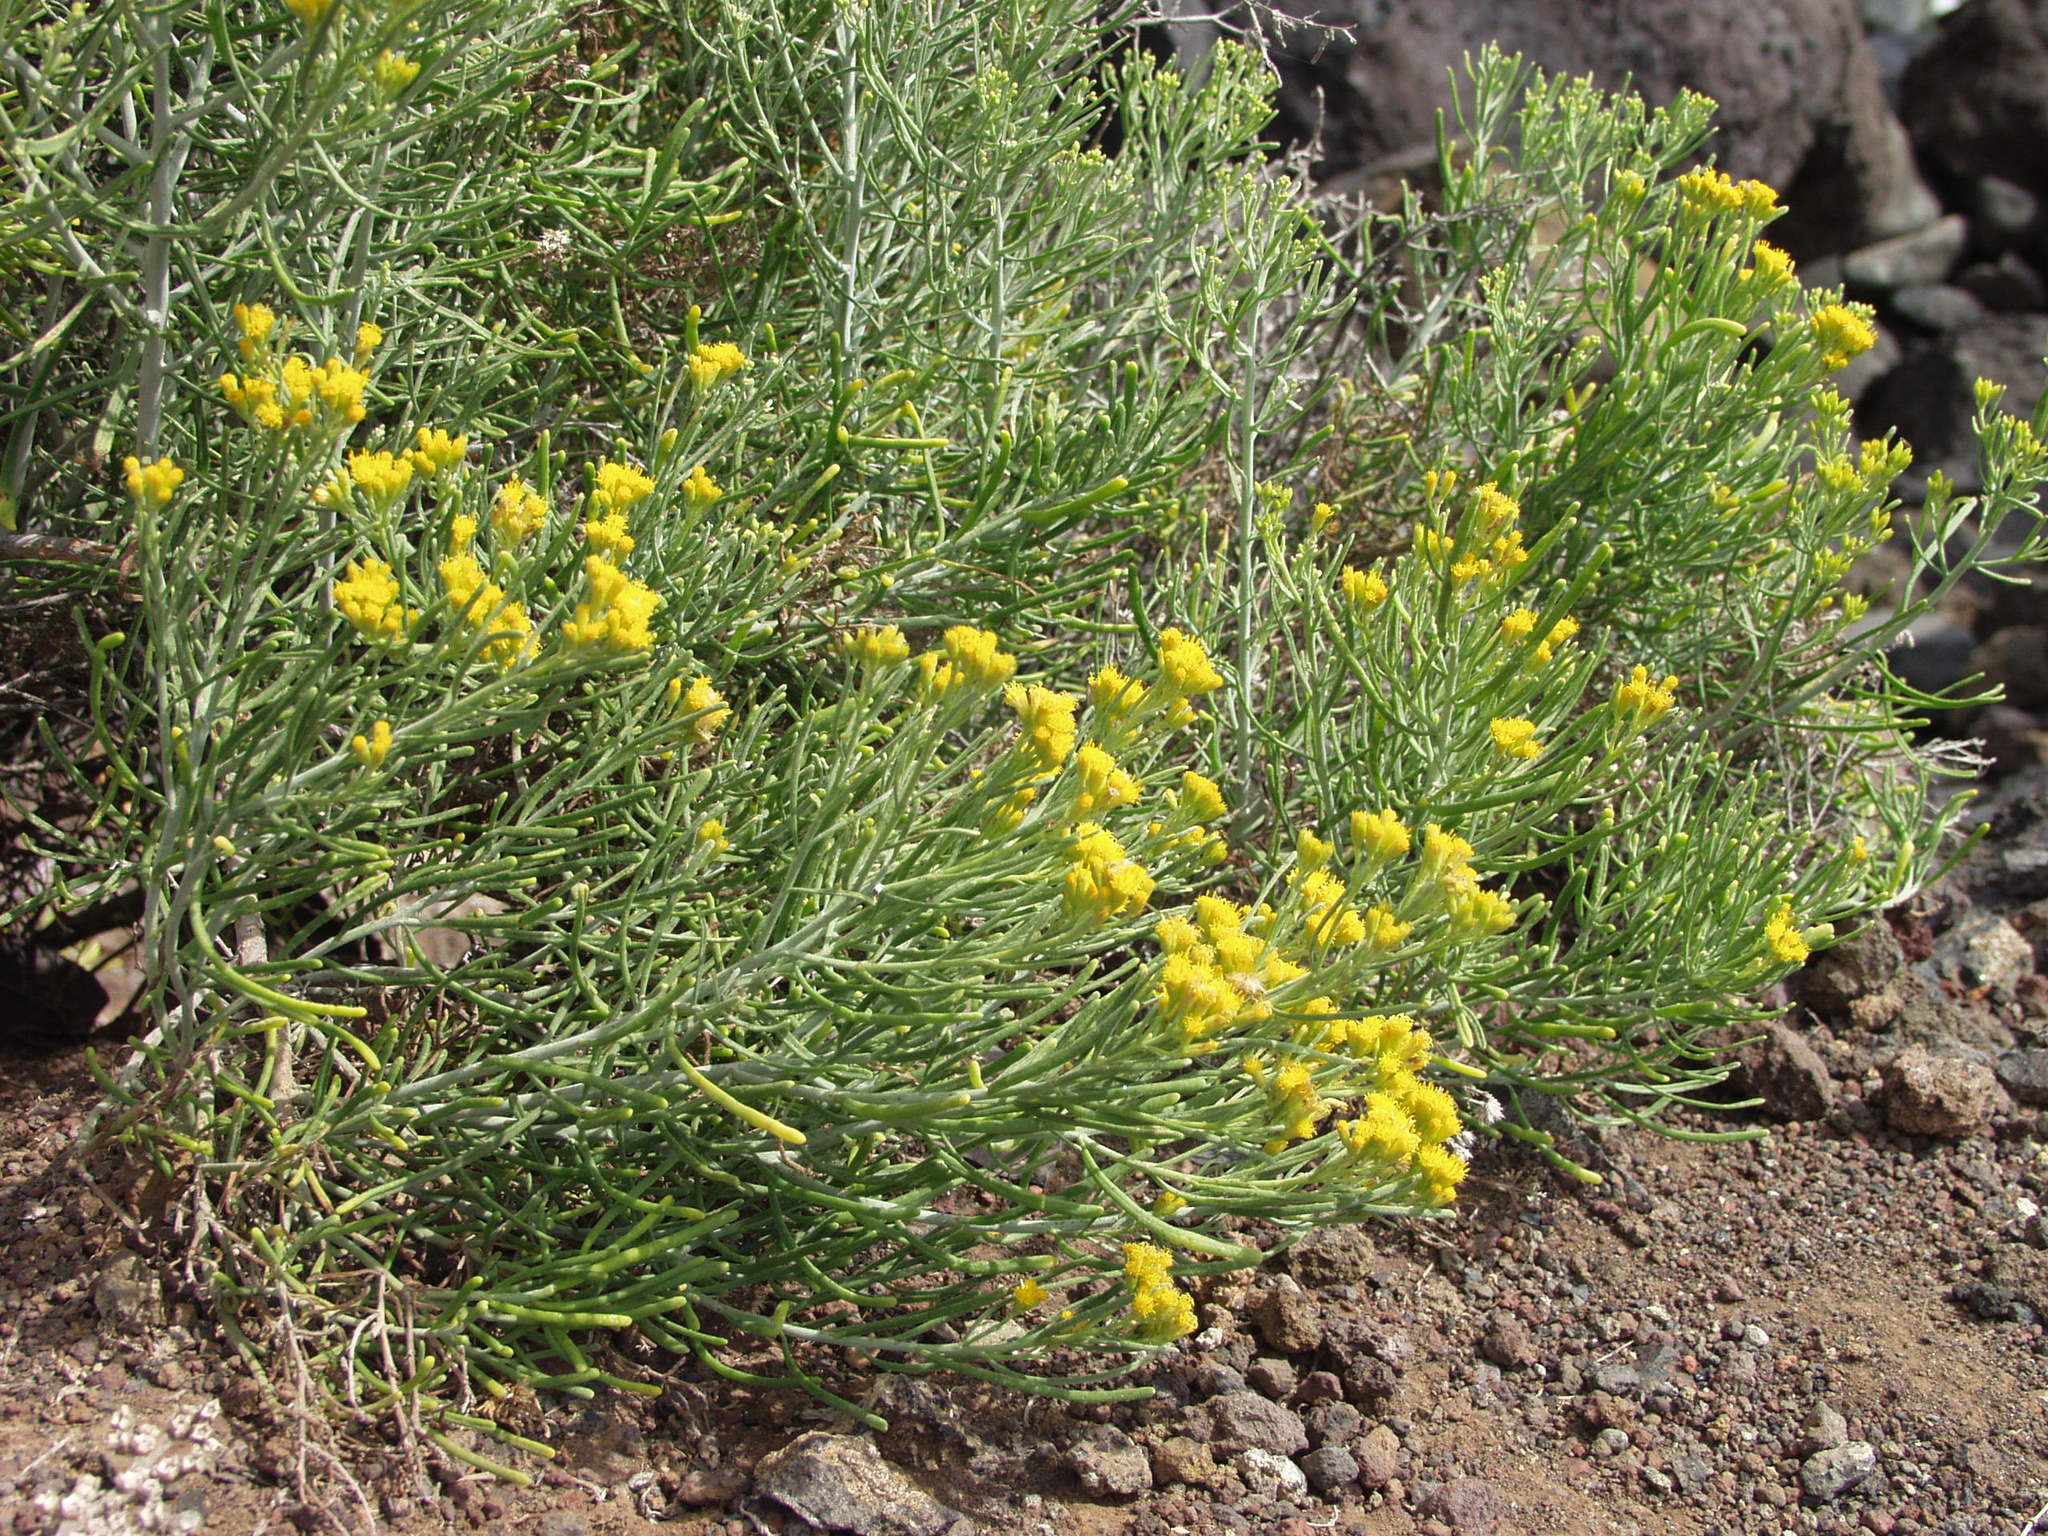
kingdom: Plantae
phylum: Tracheophyta
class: Magnoliopsida
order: Asterales
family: Asteraceae
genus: Schizogyne
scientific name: Schizogyne sericea
